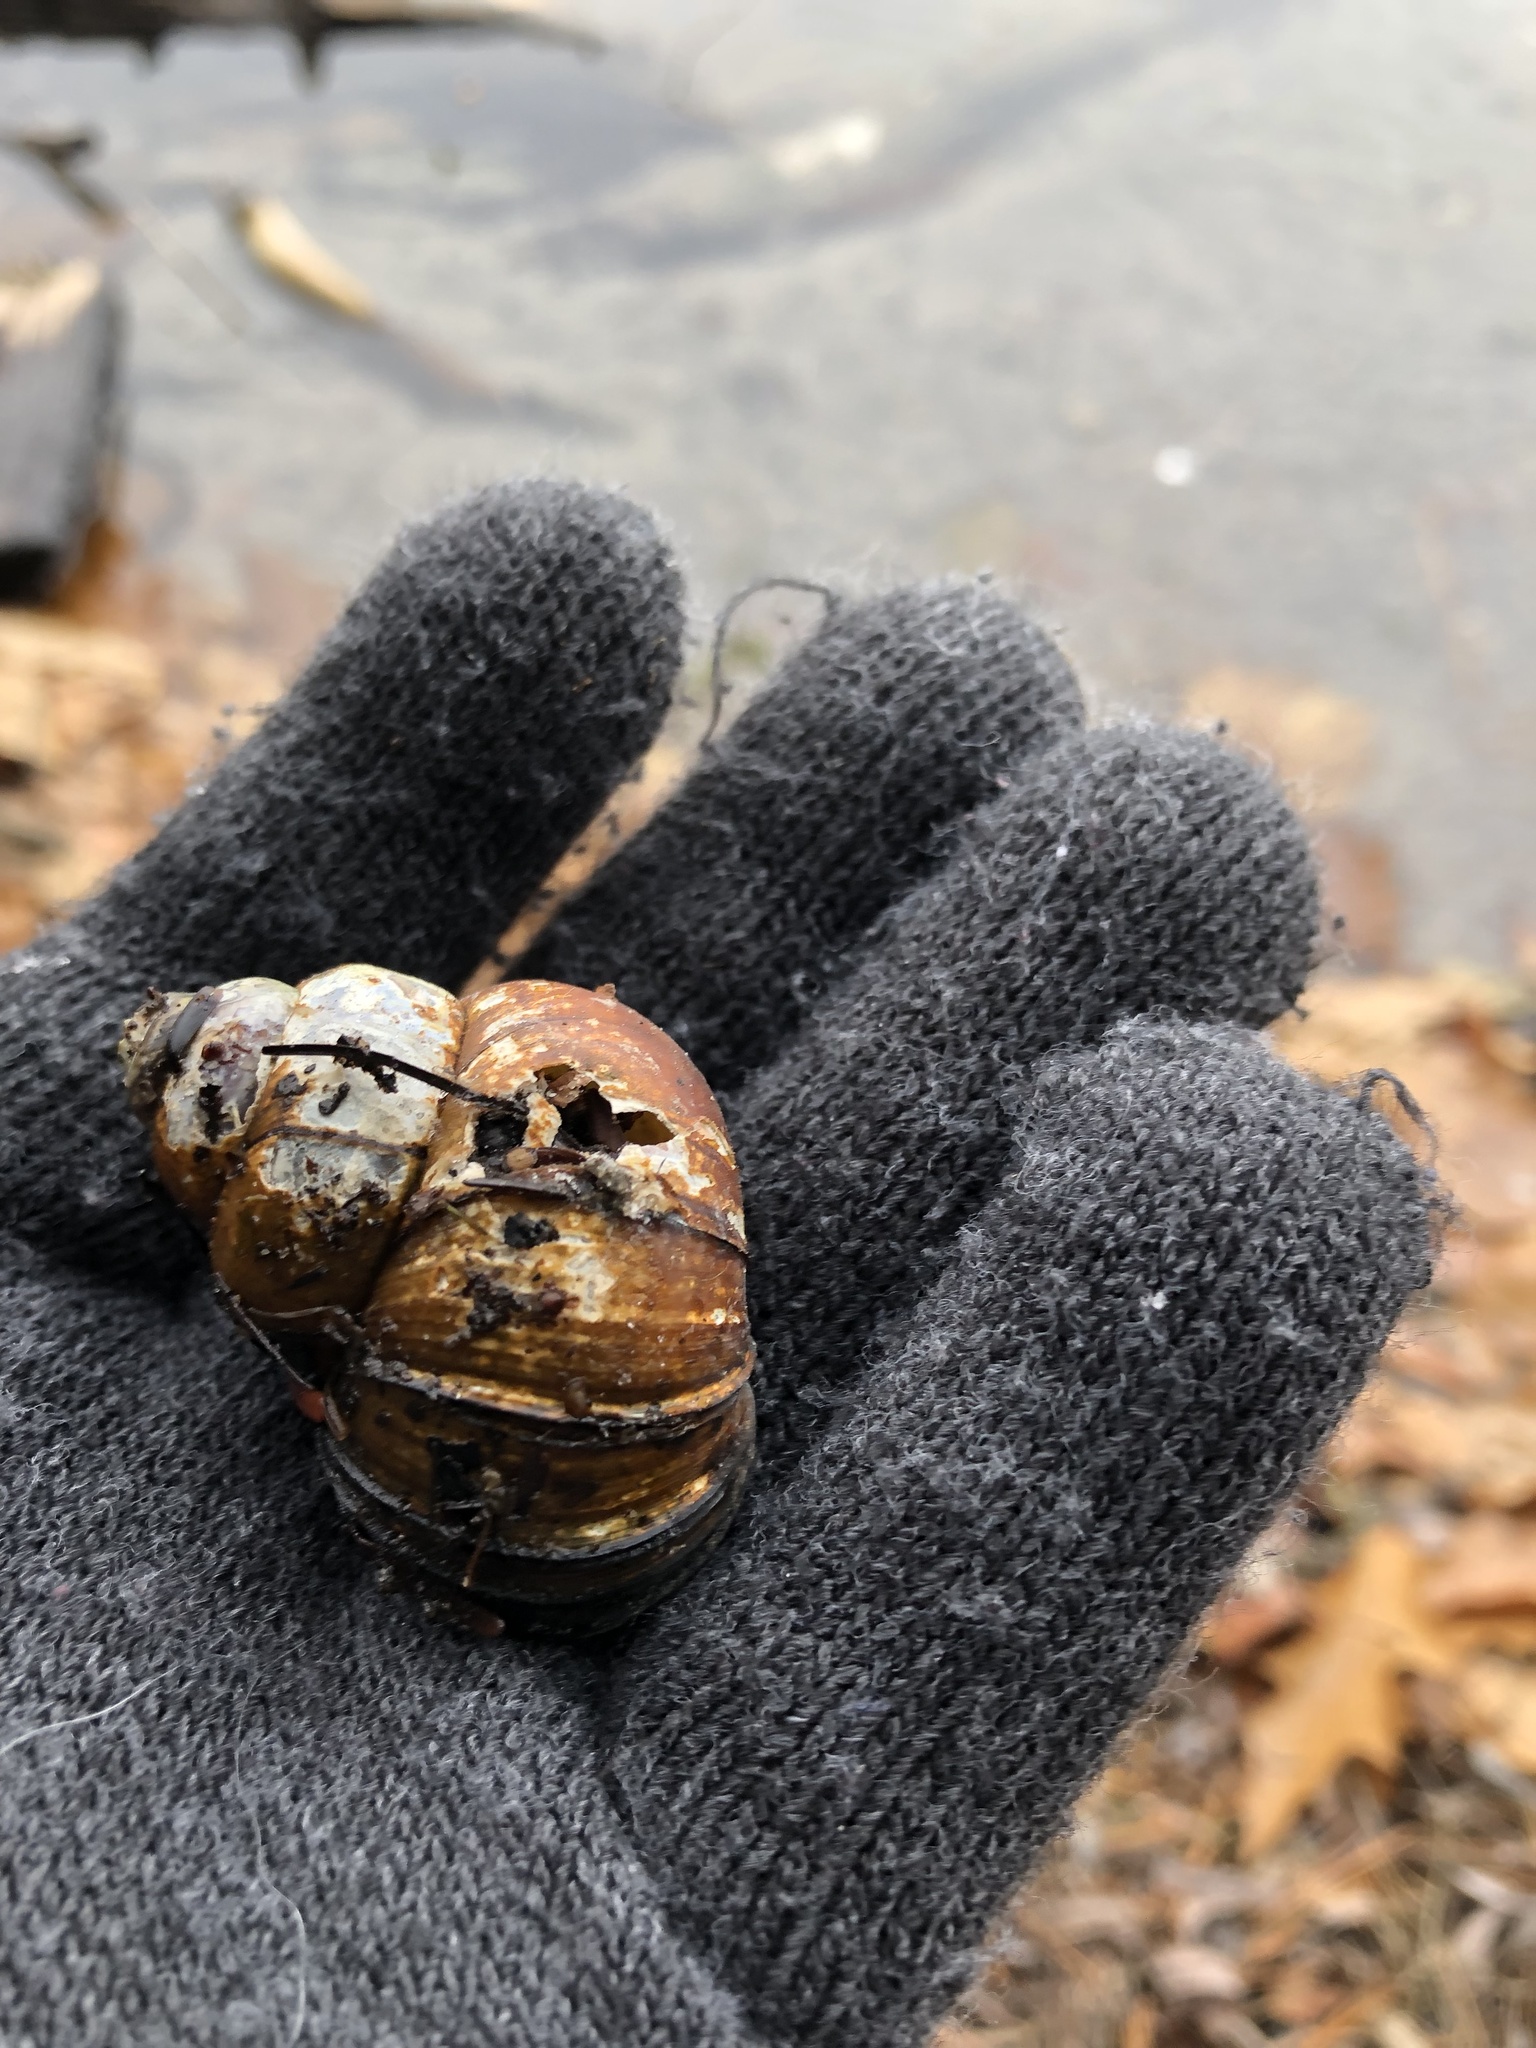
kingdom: Animalia
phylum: Mollusca
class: Gastropoda
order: Architaenioglossa
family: Viviparidae
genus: Cipangopaludina
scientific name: Cipangopaludina chinensis
